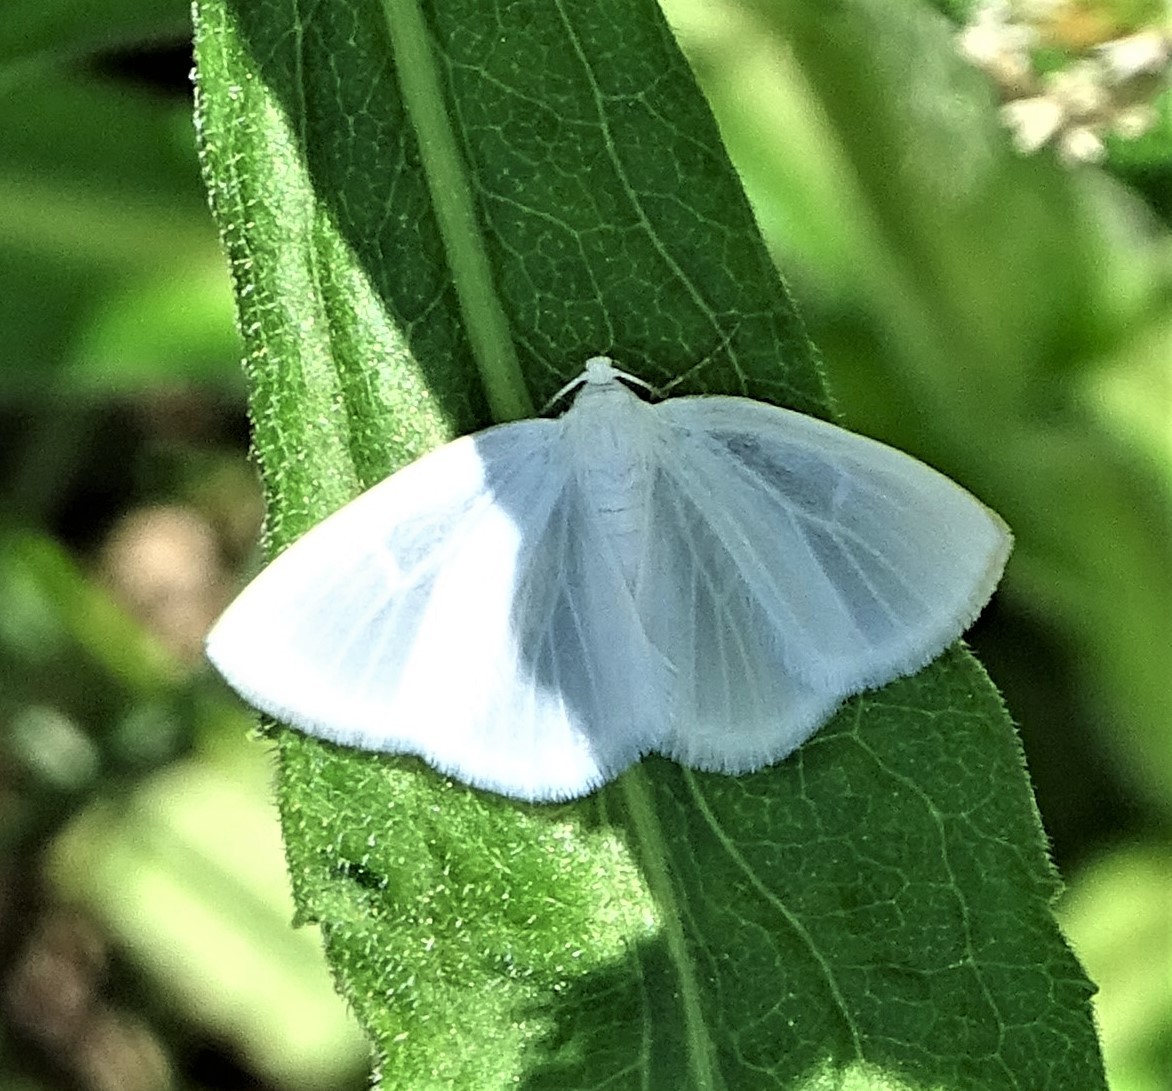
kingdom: Animalia
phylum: Arthropoda
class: Insecta
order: Lepidoptera
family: Geometridae
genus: Lomographa
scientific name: Lomographa vestaliata
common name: White spring moth
